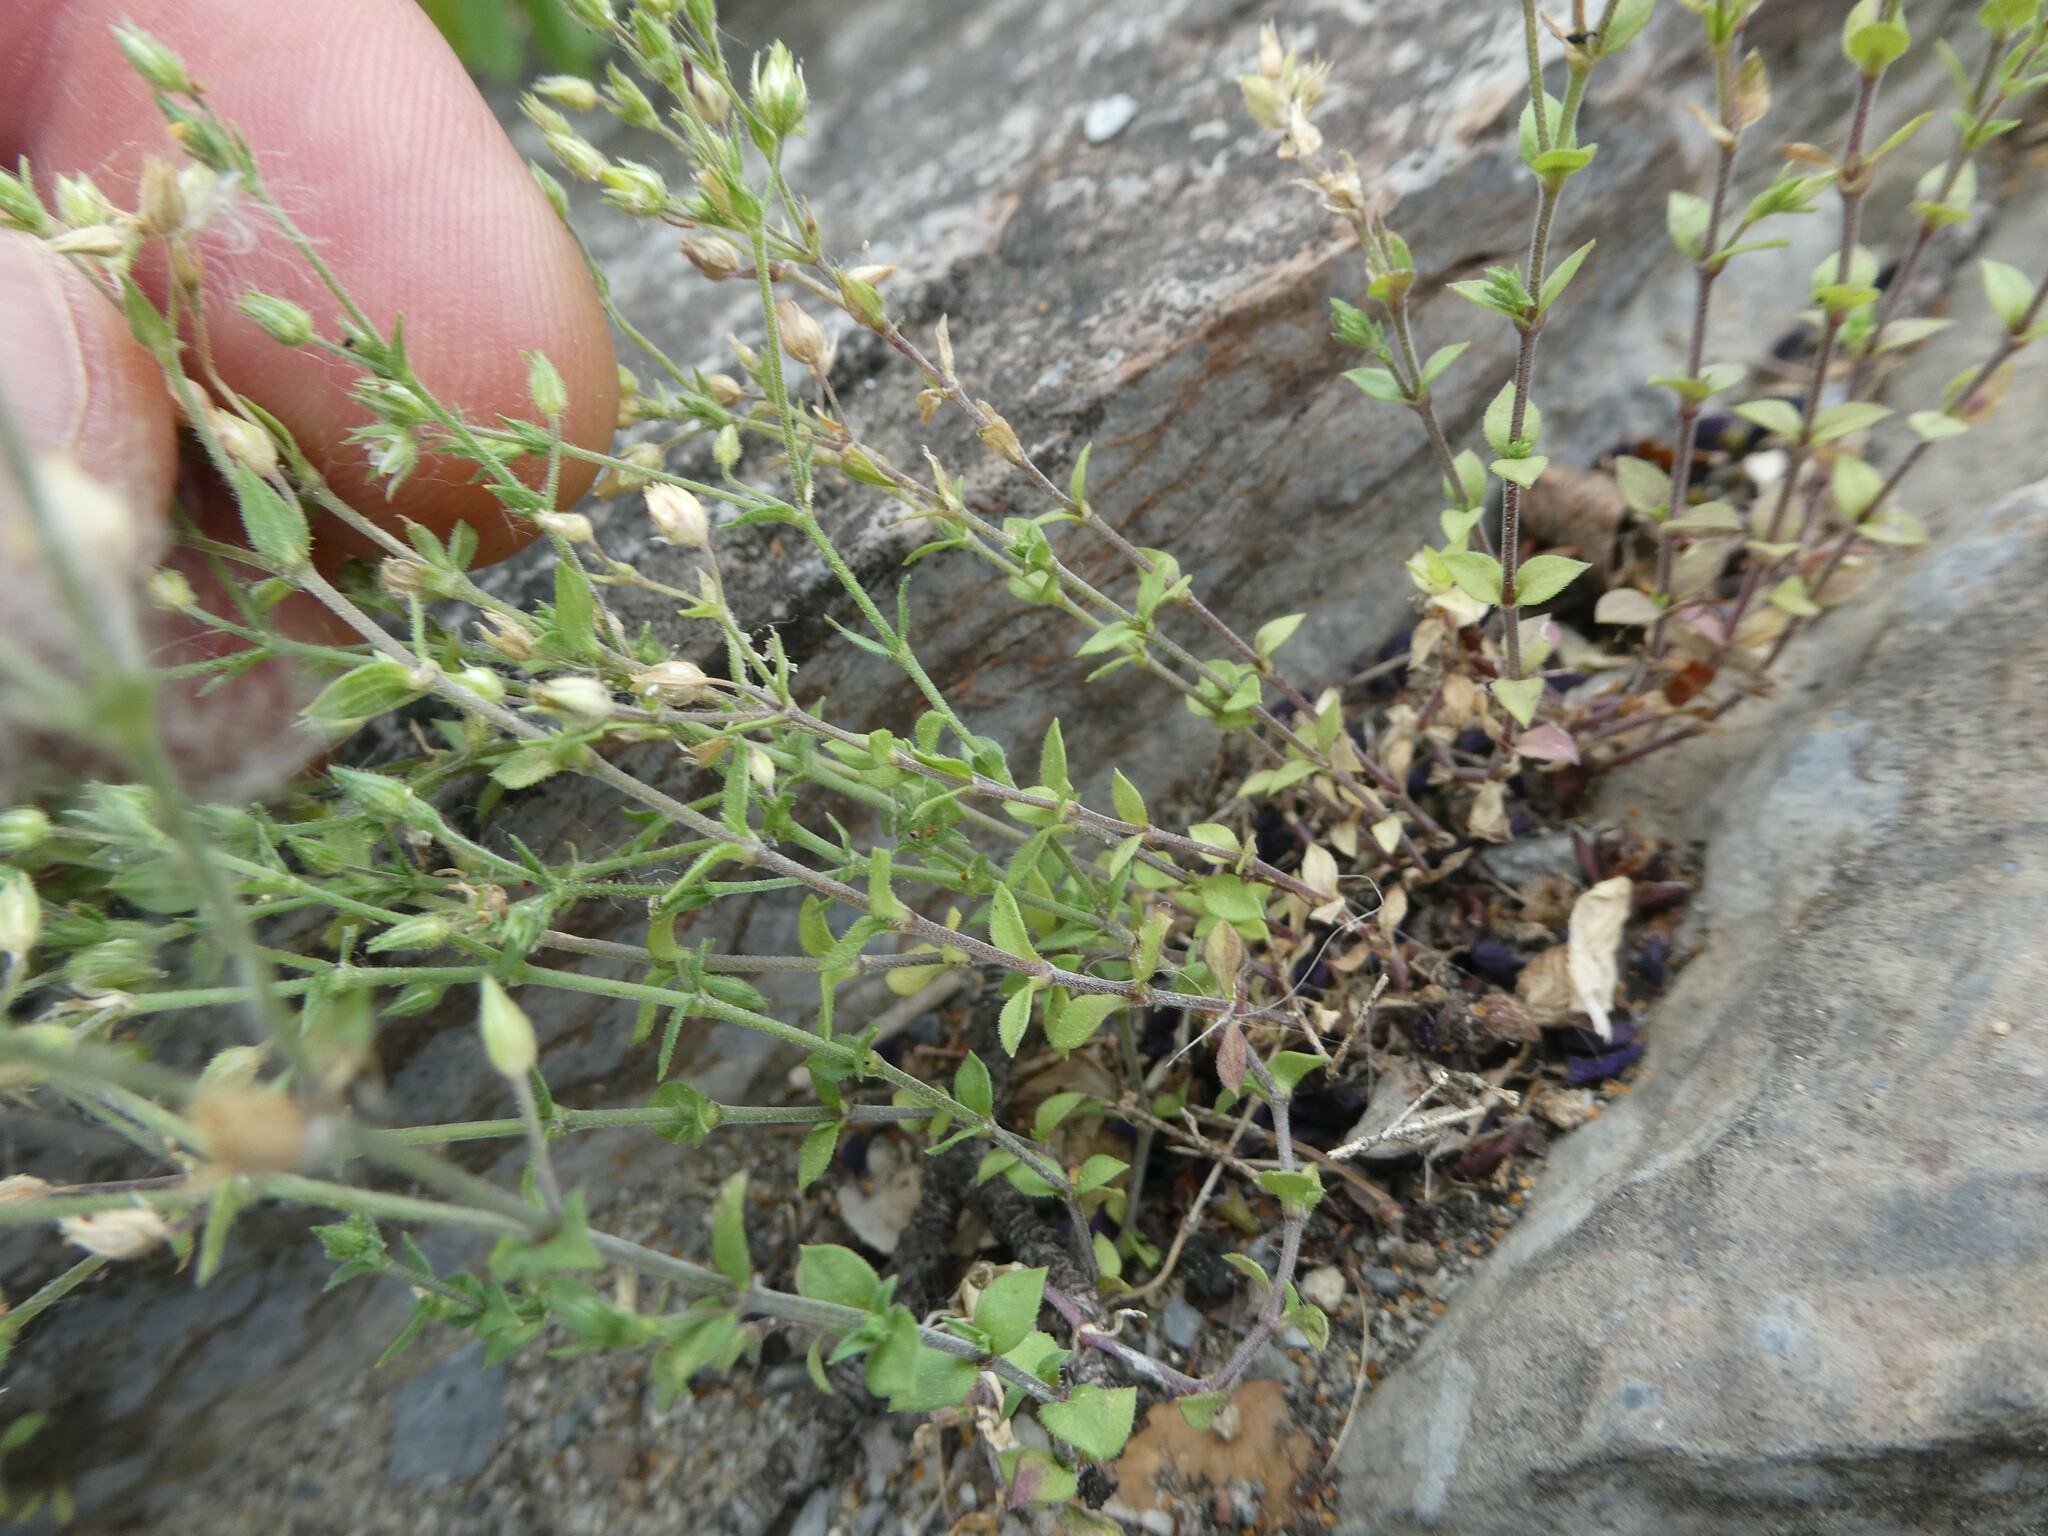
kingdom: Plantae
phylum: Tracheophyta
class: Magnoliopsida
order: Caryophyllales
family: Caryophyllaceae
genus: Arenaria
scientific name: Arenaria serpyllifolia
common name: Thyme-leaved sandwort
